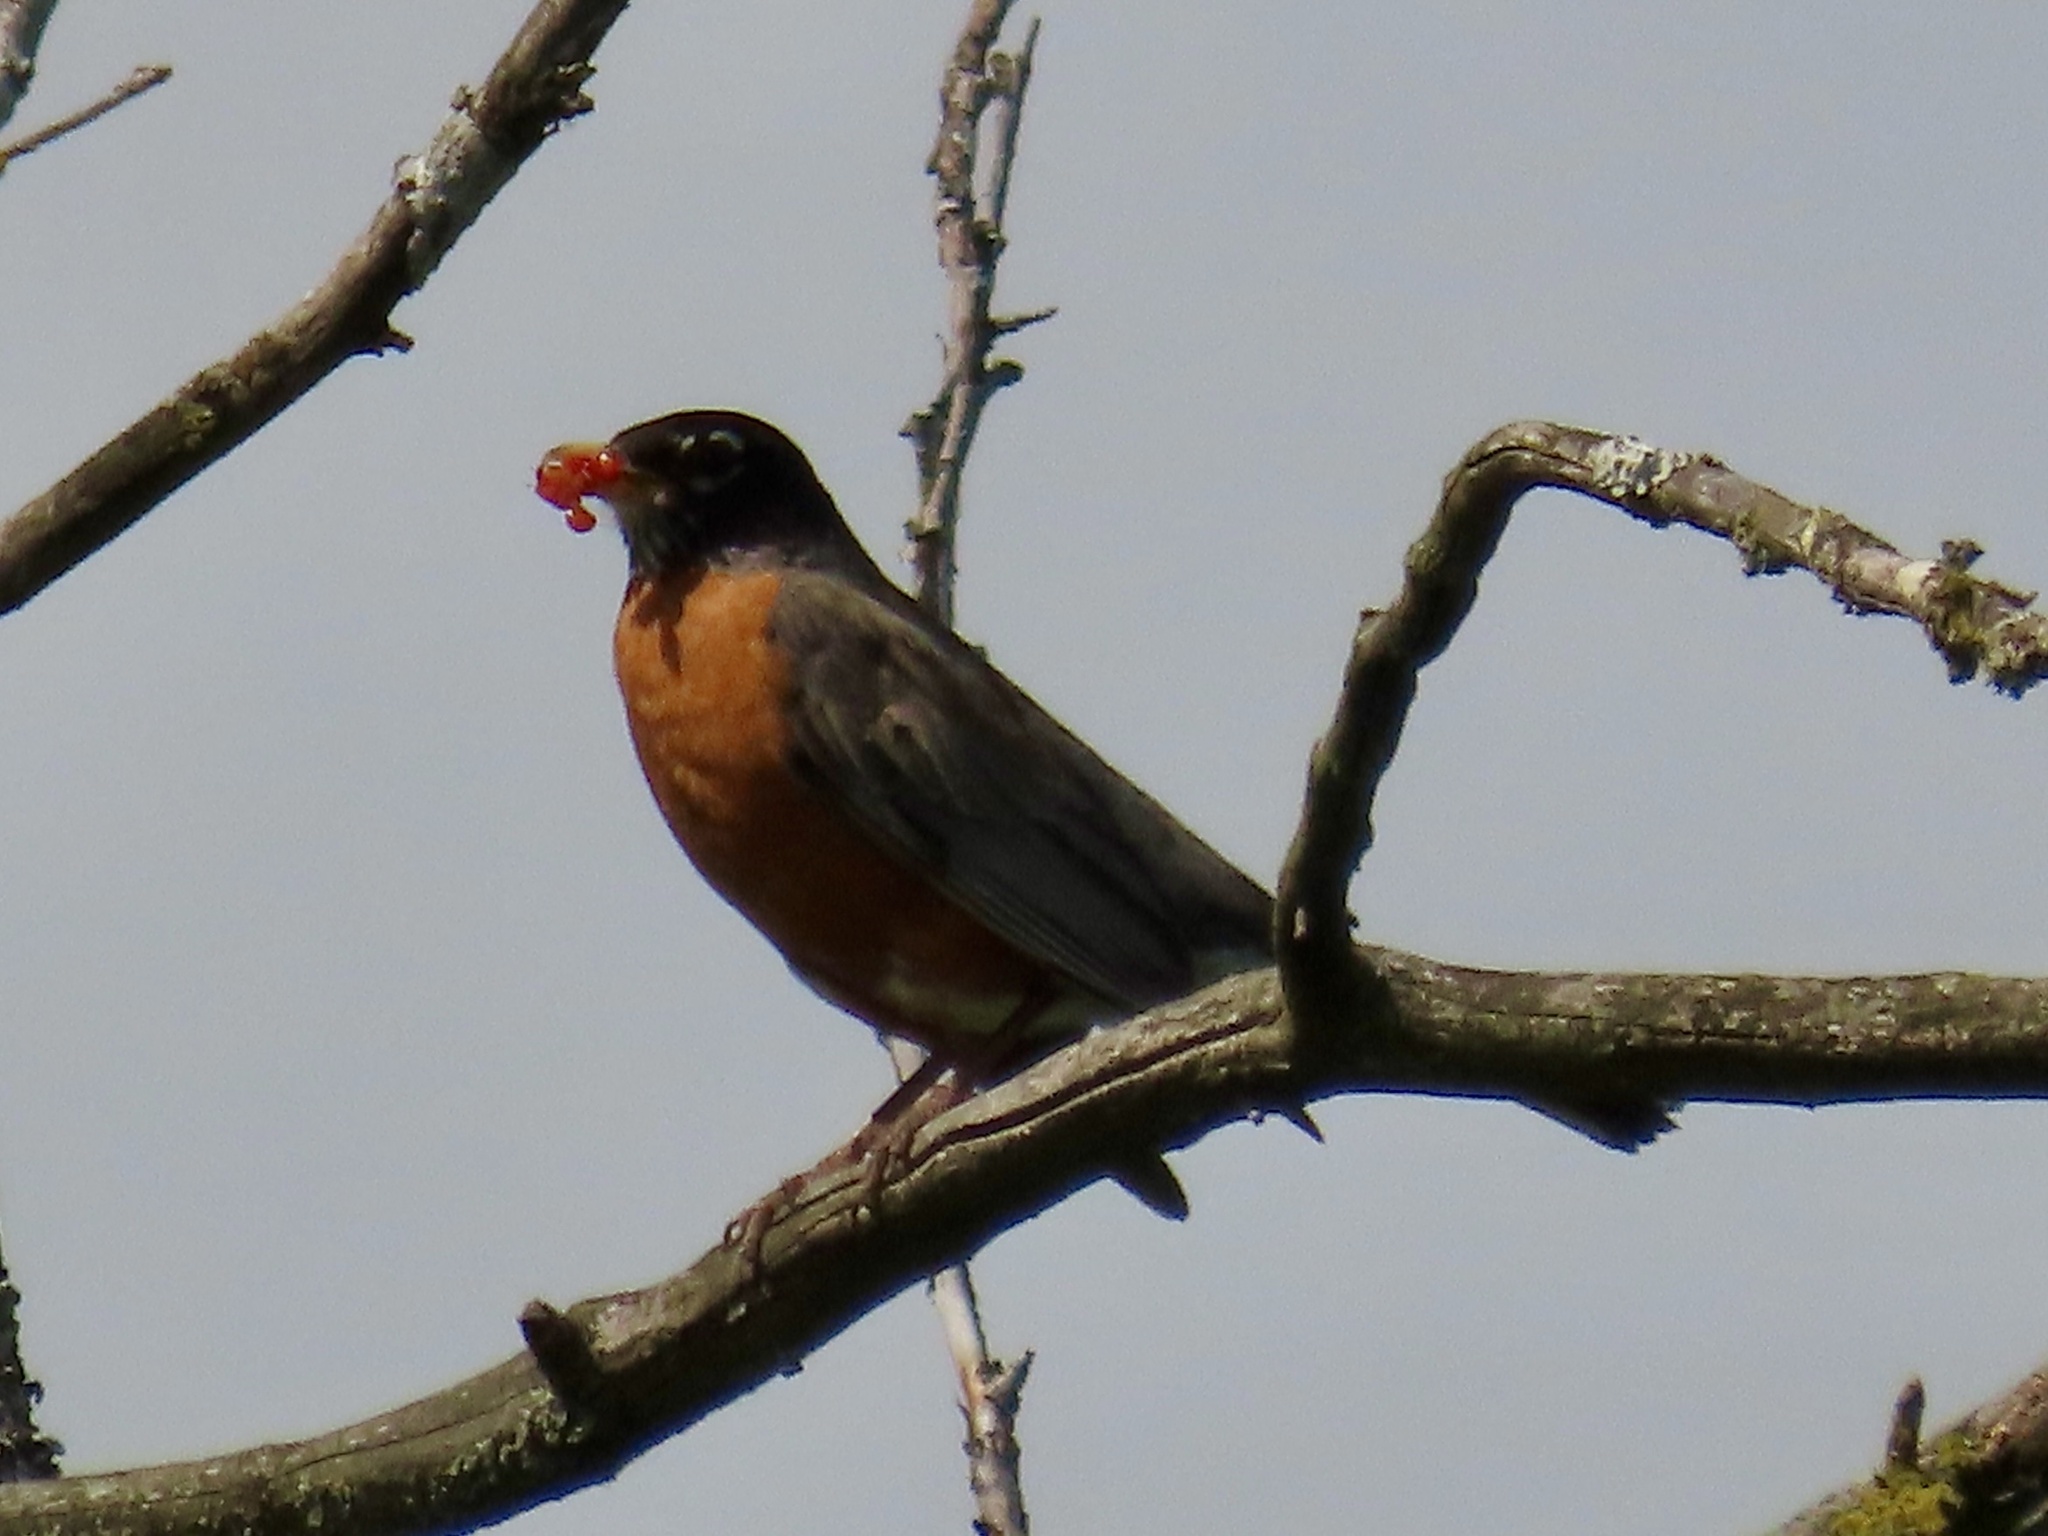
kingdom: Animalia
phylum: Chordata
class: Aves
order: Passeriformes
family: Turdidae
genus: Turdus
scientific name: Turdus migratorius
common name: American robin
